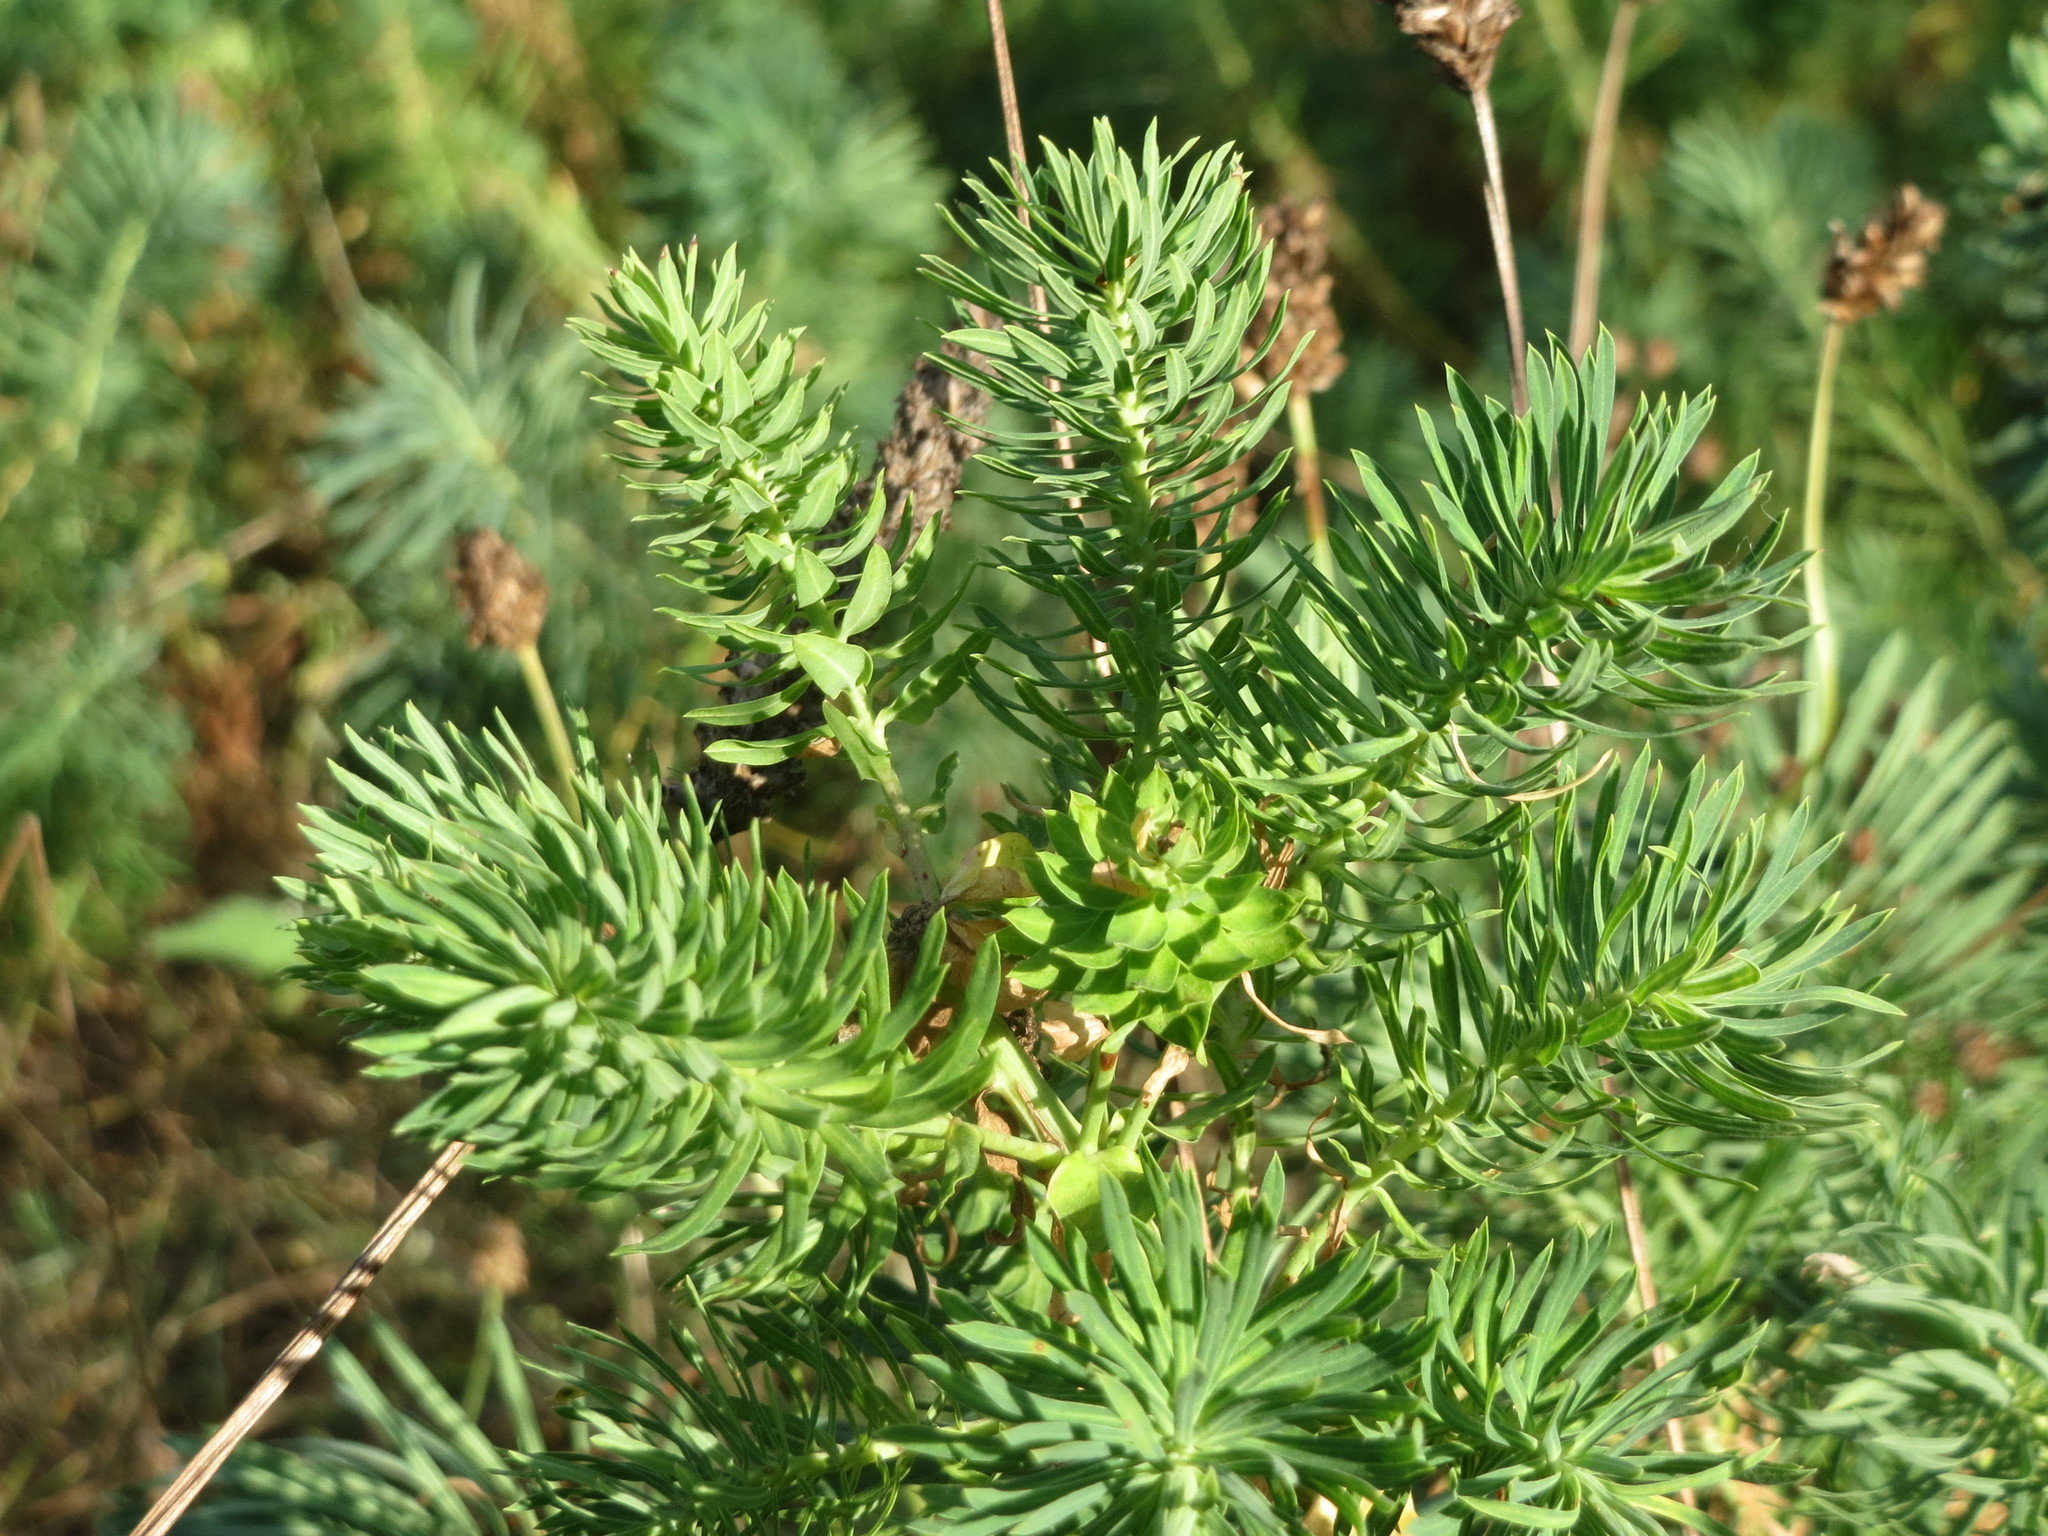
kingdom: Plantae
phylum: Tracheophyta
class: Magnoliopsida
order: Malpighiales
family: Euphorbiaceae
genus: Euphorbia
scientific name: Euphorbia cyparissias
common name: Cypress spurge
